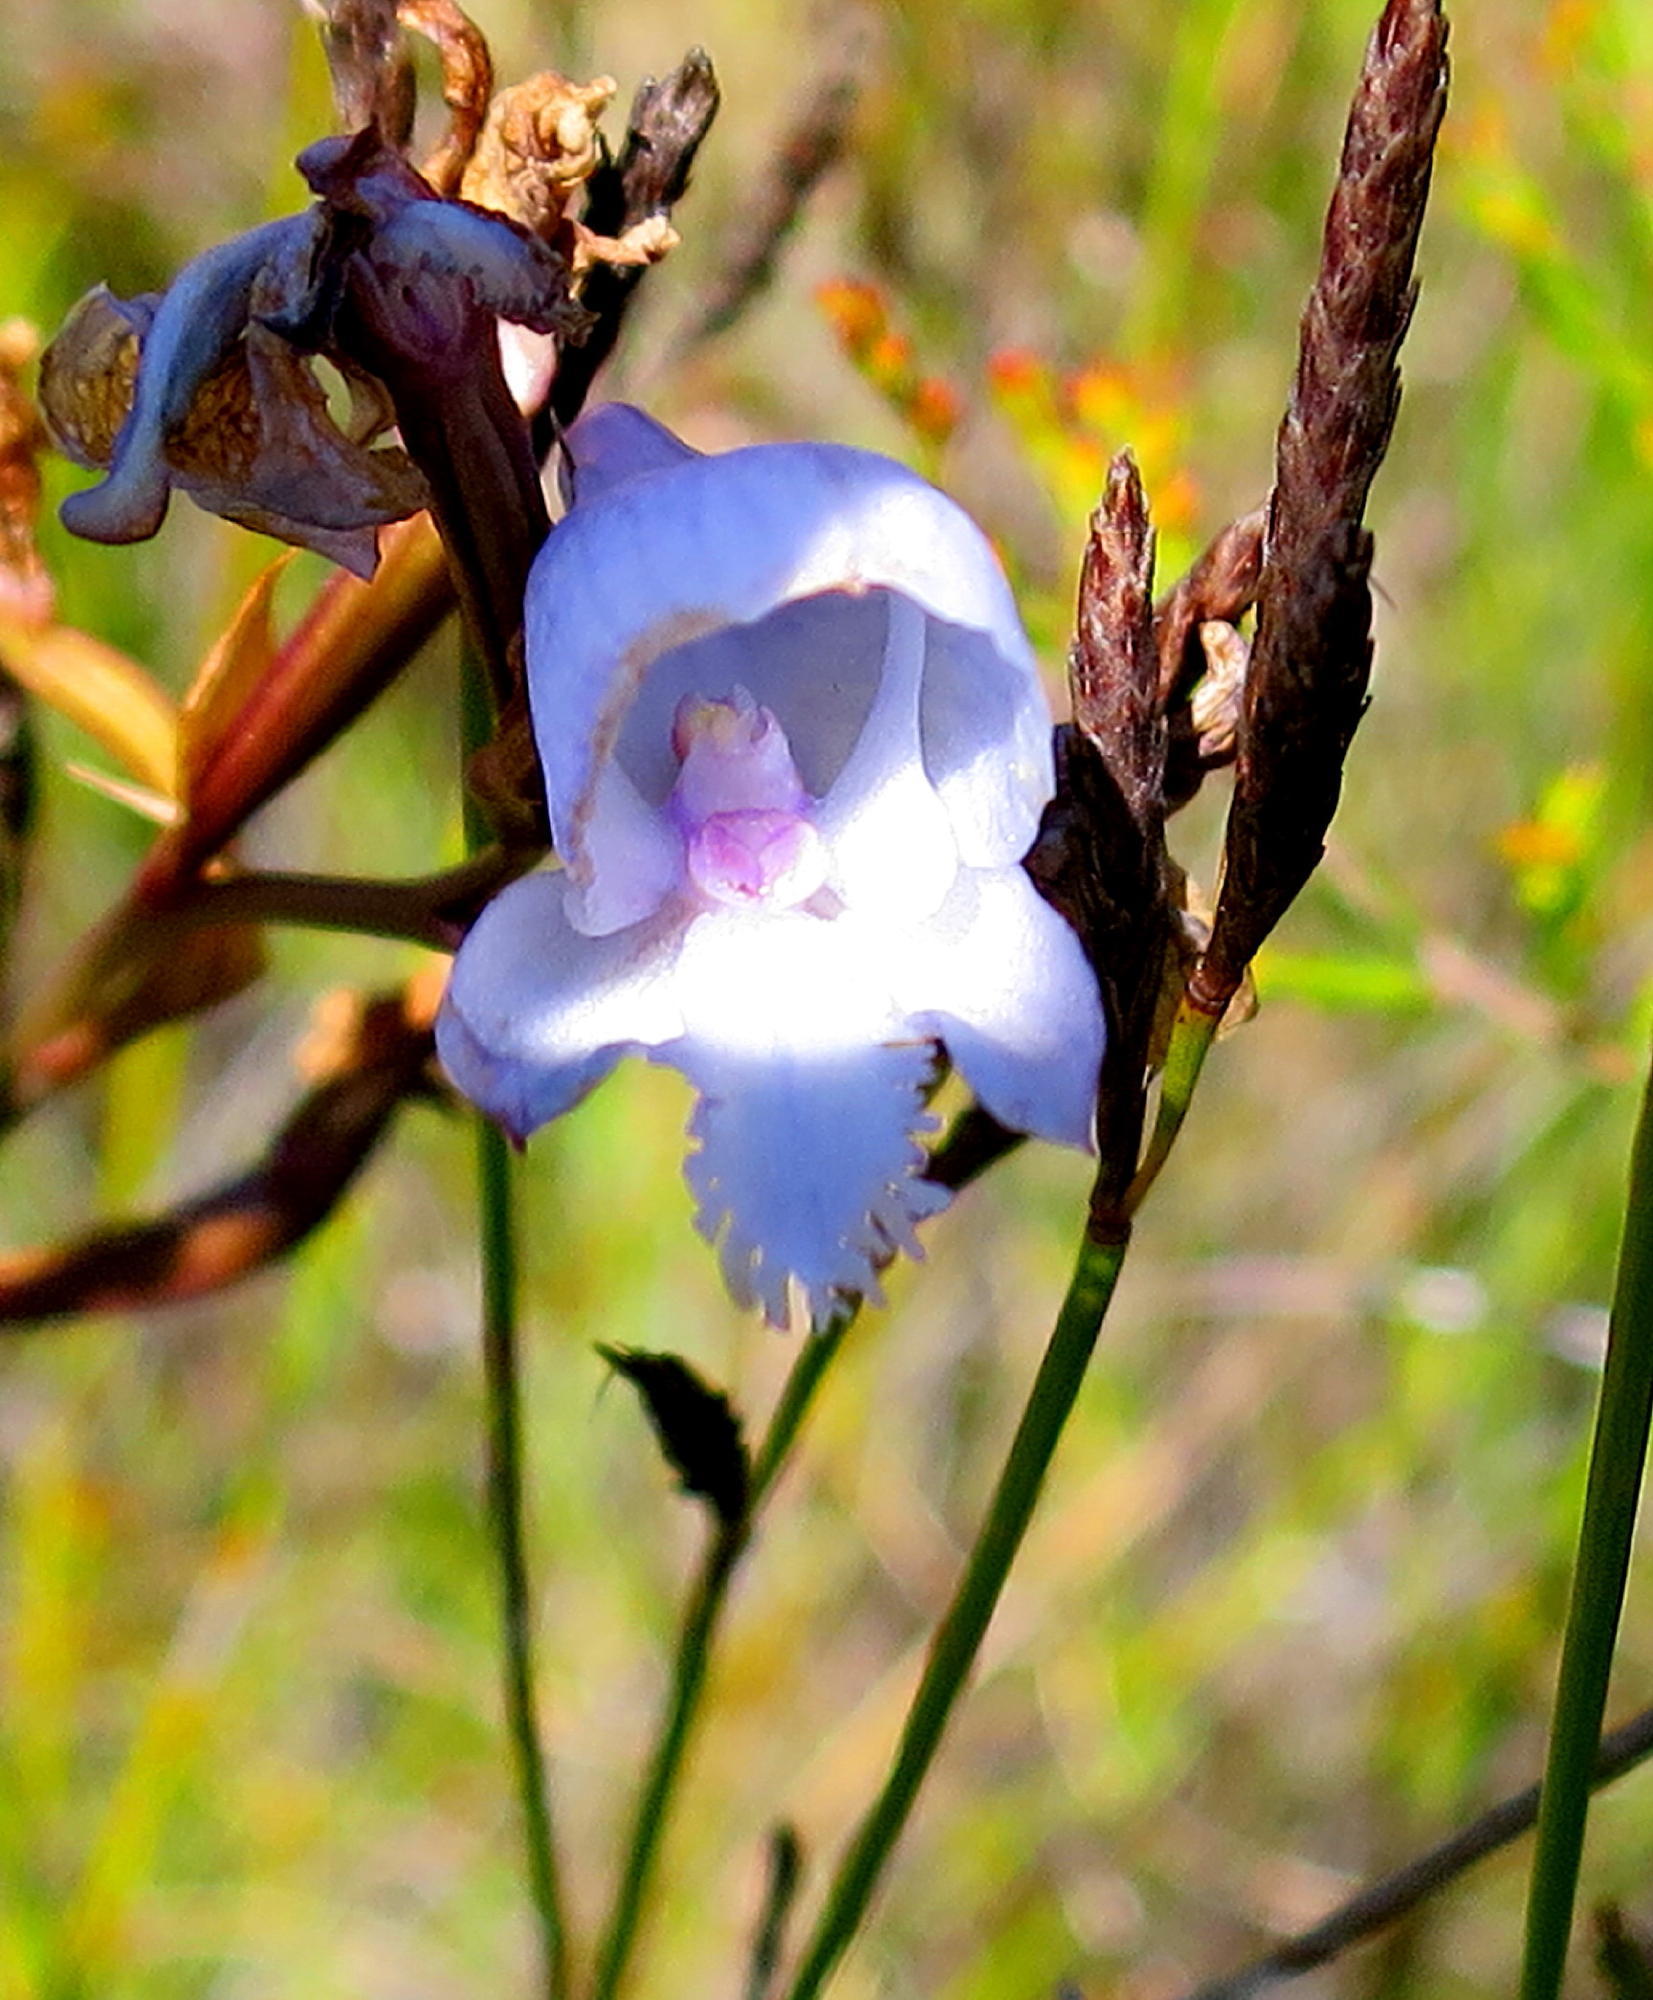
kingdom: Plantae
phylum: Tracheophyta
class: Liliopsida
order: Asparagales
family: Orchidaceae
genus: Disa
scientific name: Disa hians
